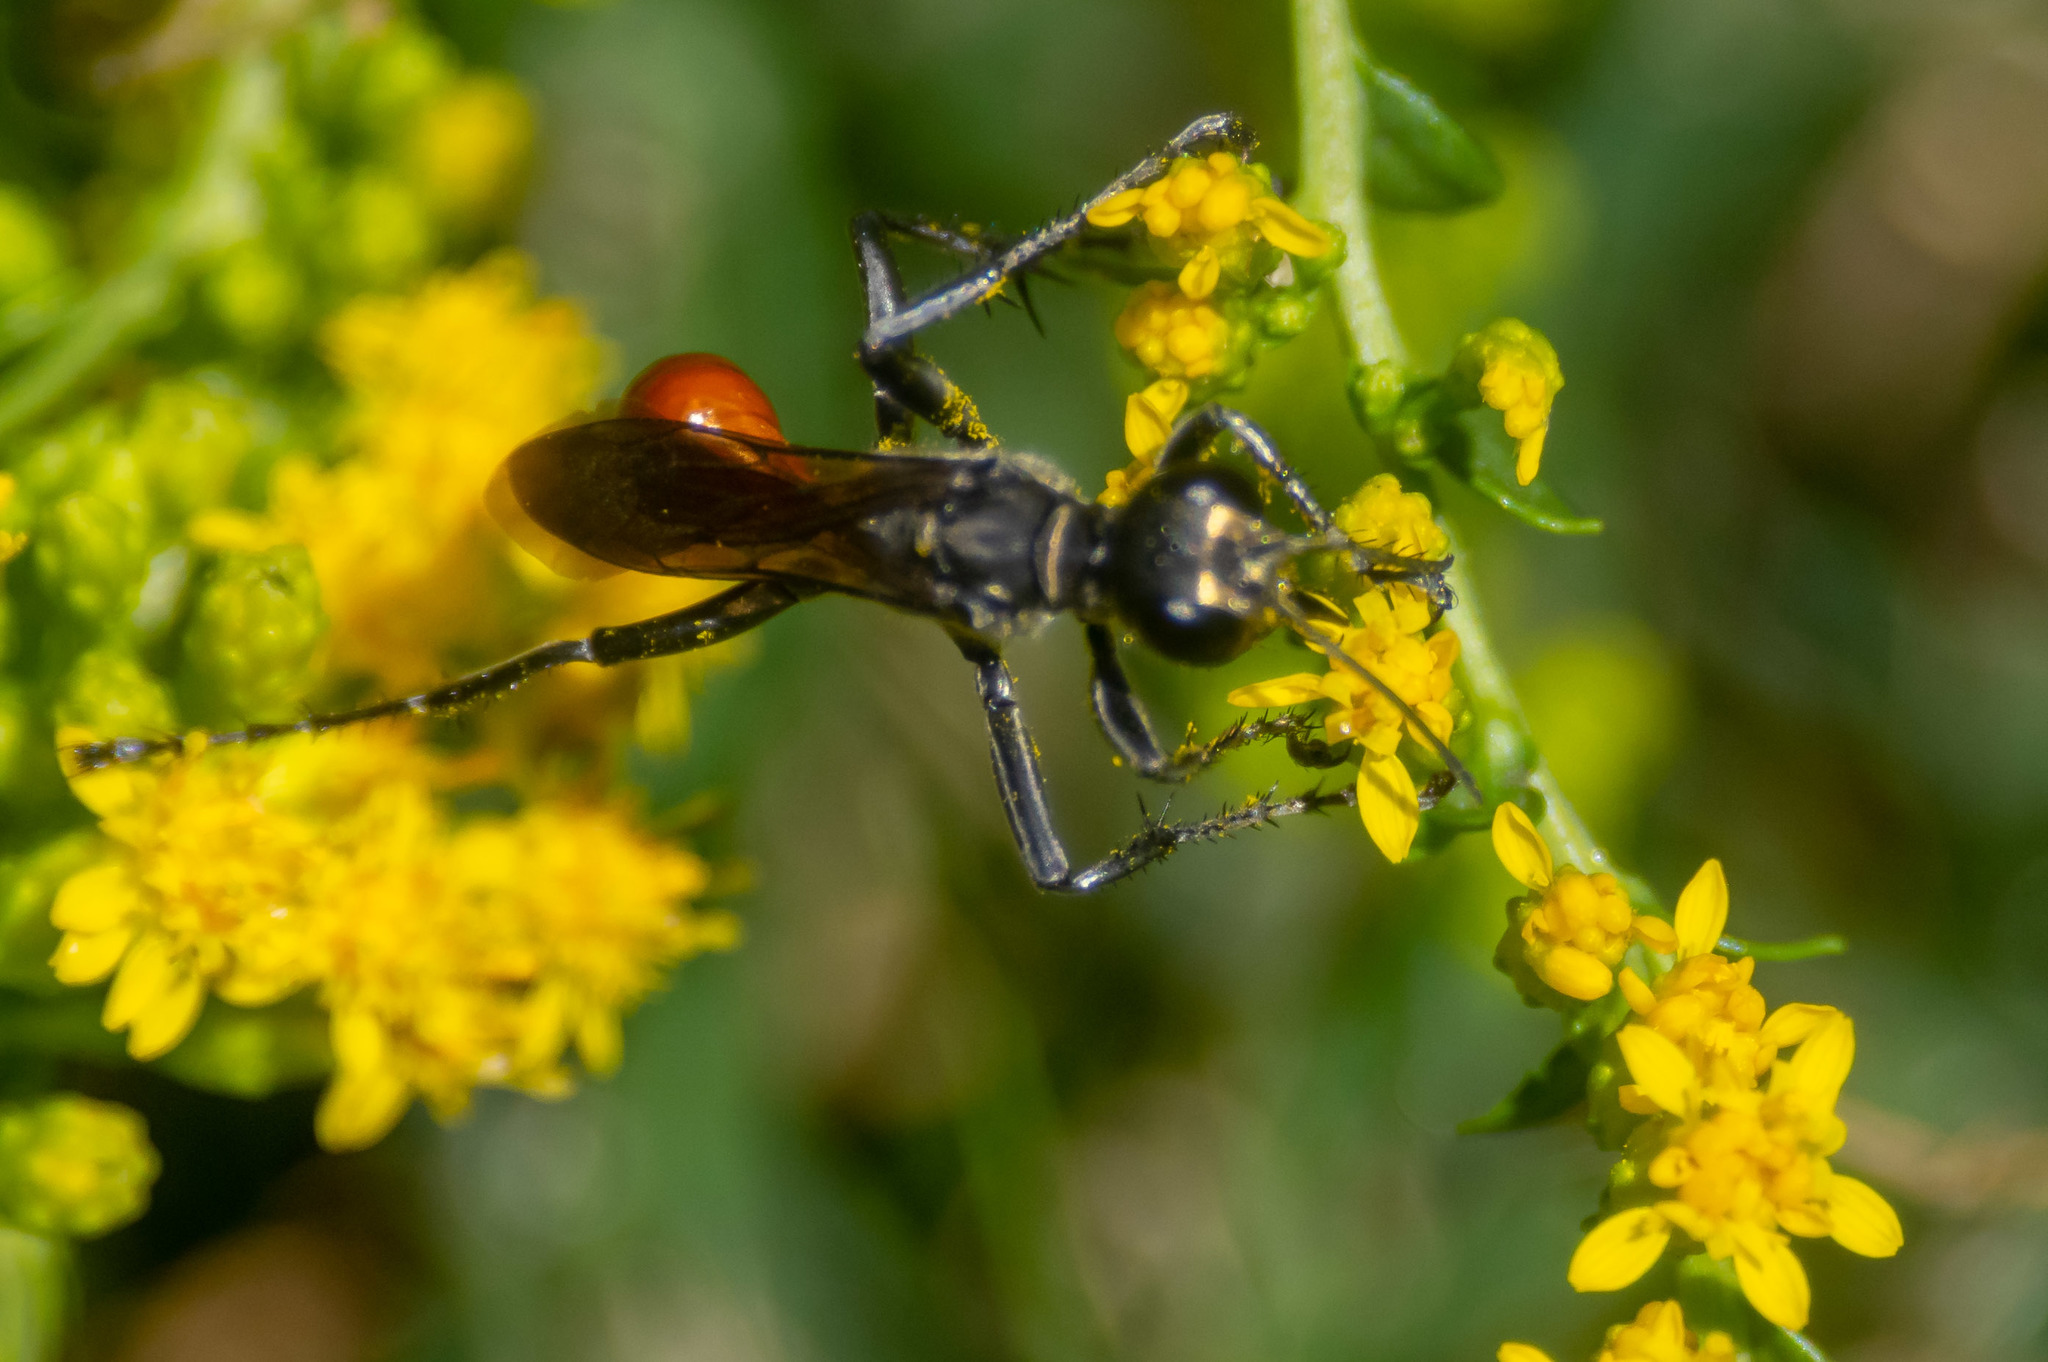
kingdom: Animalia
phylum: Arthropoda
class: Insecta
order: Hymenoptera
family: Sphecidae
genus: Prionyx
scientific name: Prionyx
